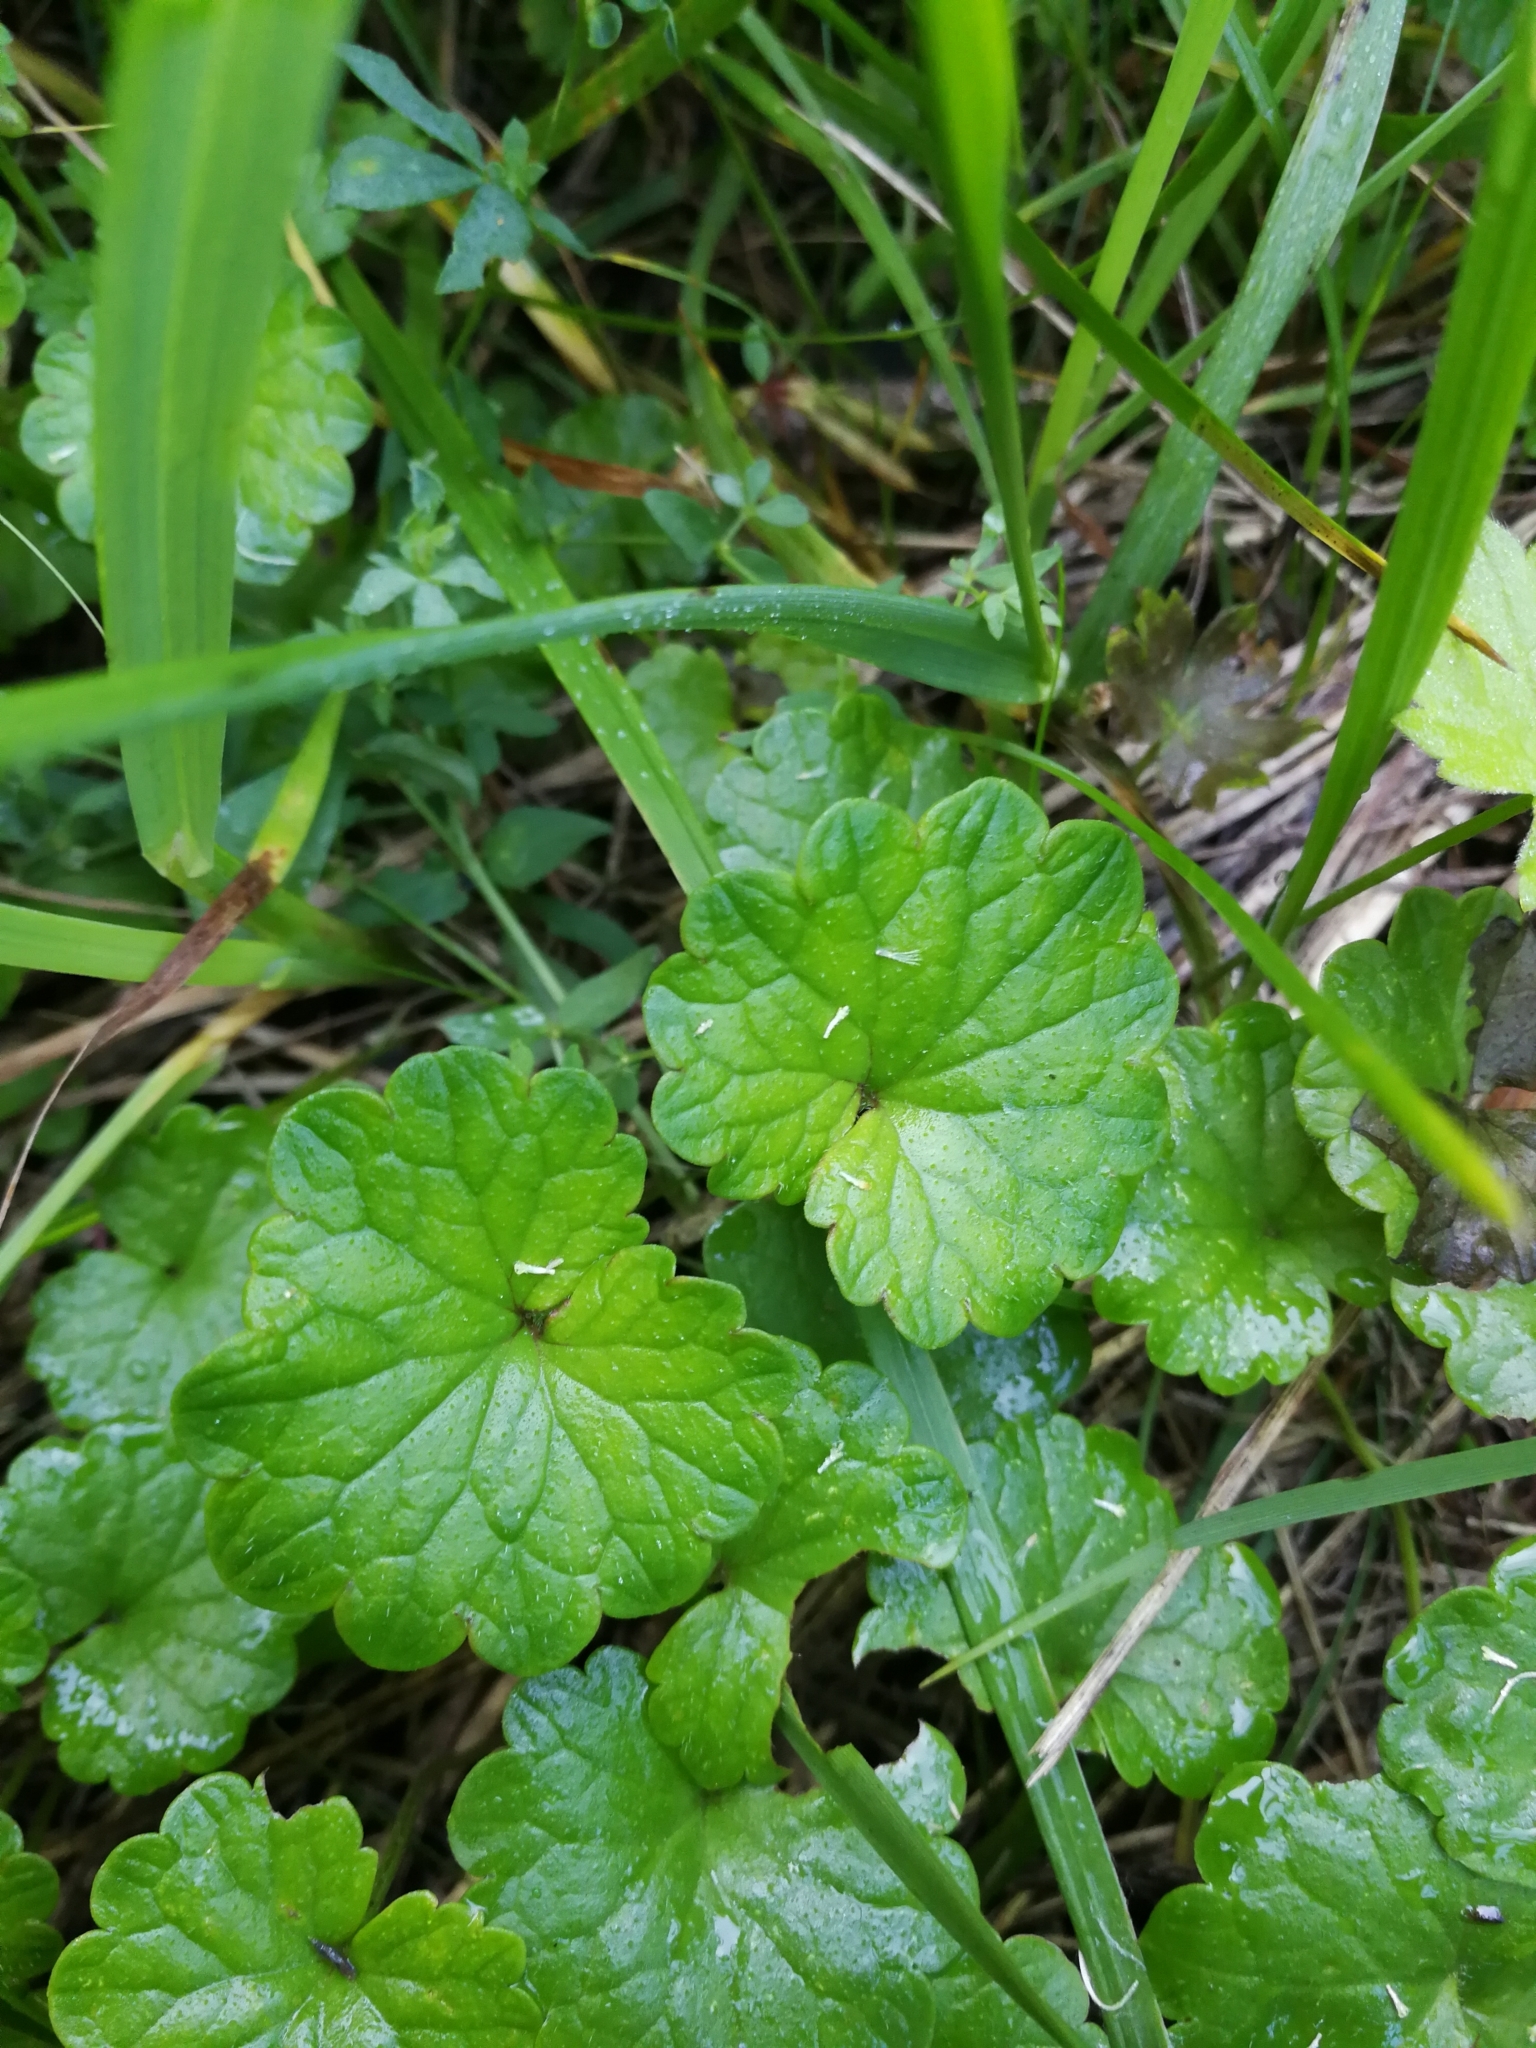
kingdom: Plantae
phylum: Tracheophyta
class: Magnoliopsida
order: Lamiales
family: Lamiaceae
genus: Glechoma
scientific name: Glechoma hederacea
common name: Ground ivy
